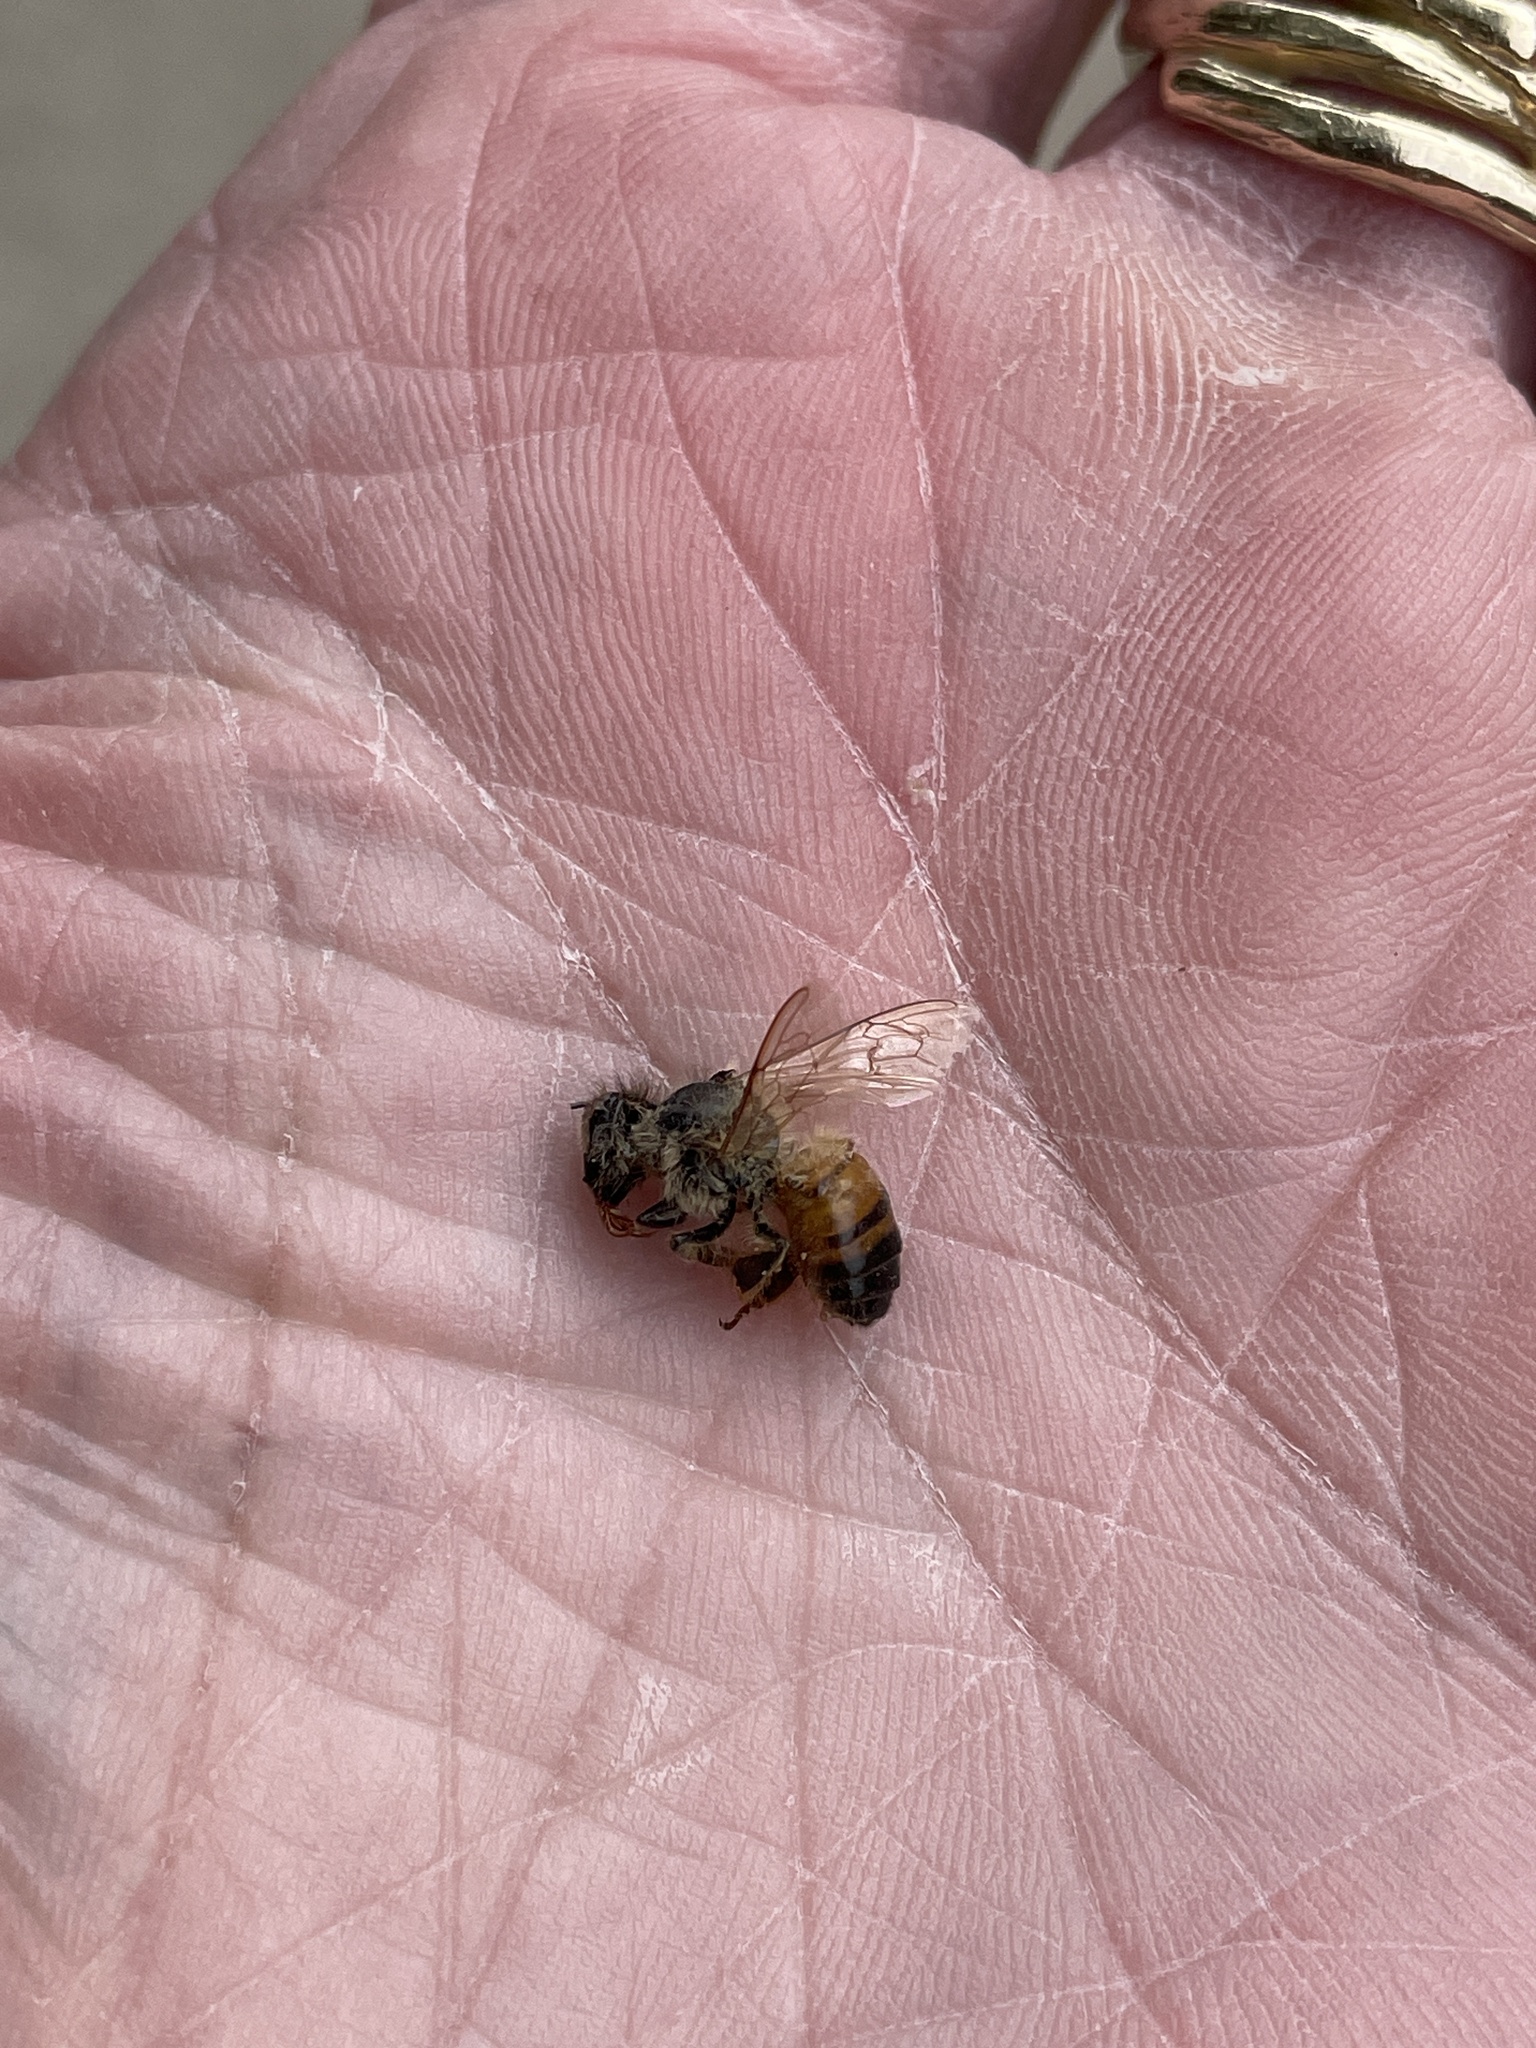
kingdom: Animalia
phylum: Arthropoda
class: Insecta
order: Hymenoptera
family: Apidae
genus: Apis
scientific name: Apis mellifera
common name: Honey bee
